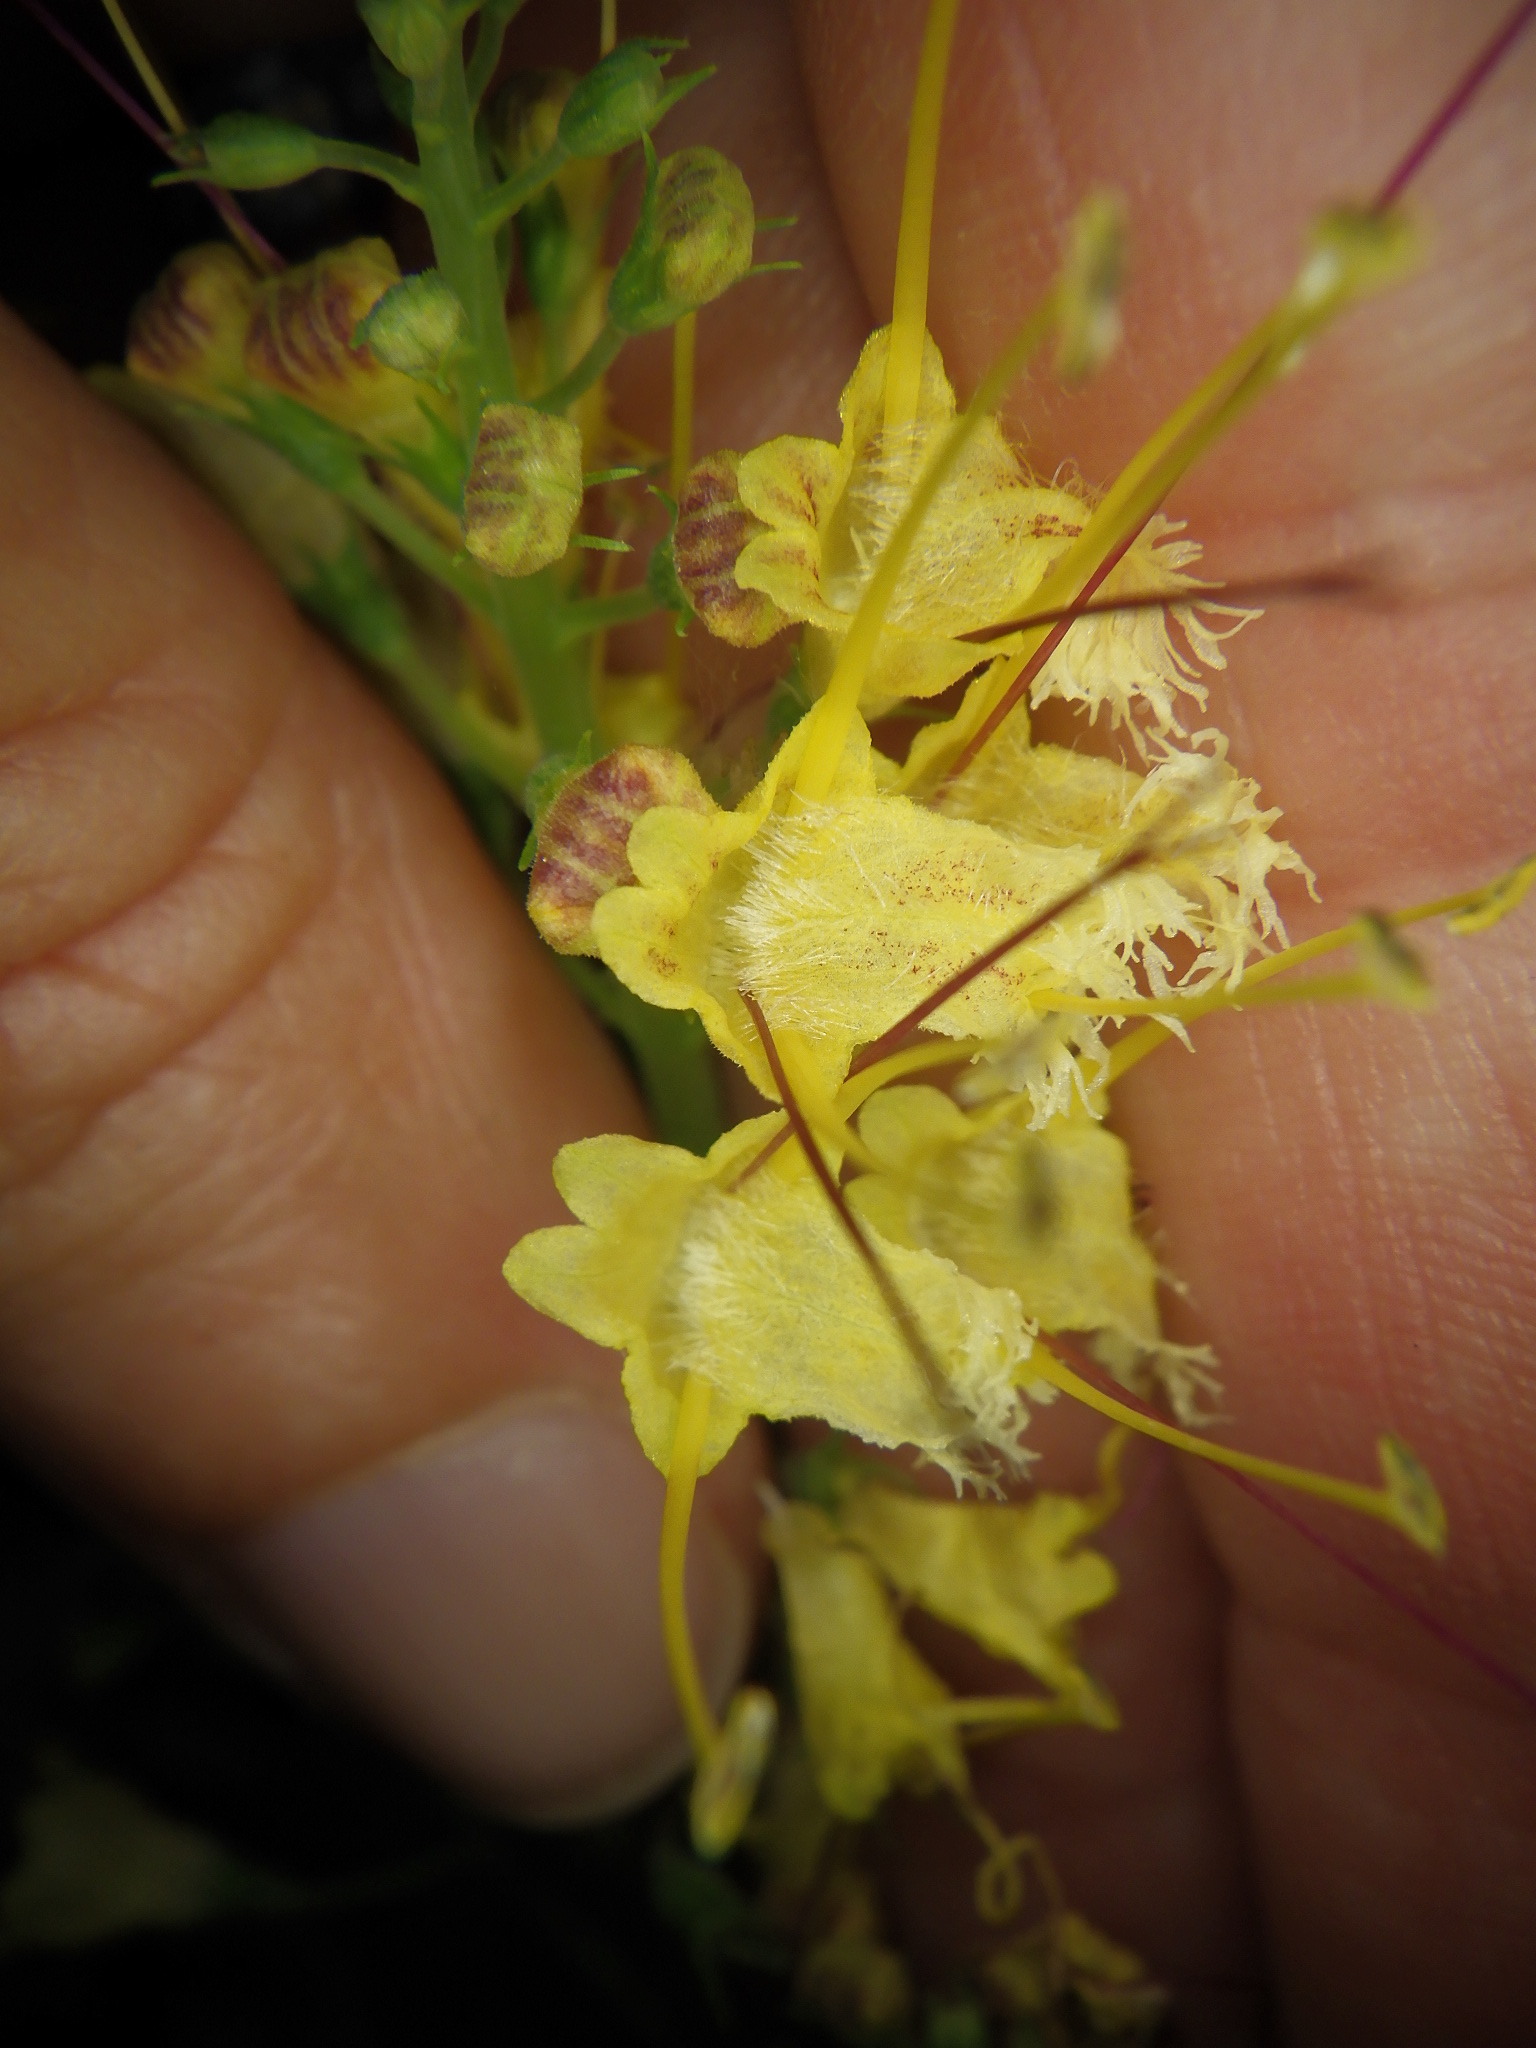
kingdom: Plantae
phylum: Tracheophyta
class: Magnoliopsida
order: Lamiales
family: Lamiaceae
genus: Collinsonia
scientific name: Collinsonia canadensis
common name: Northern horsebalm
